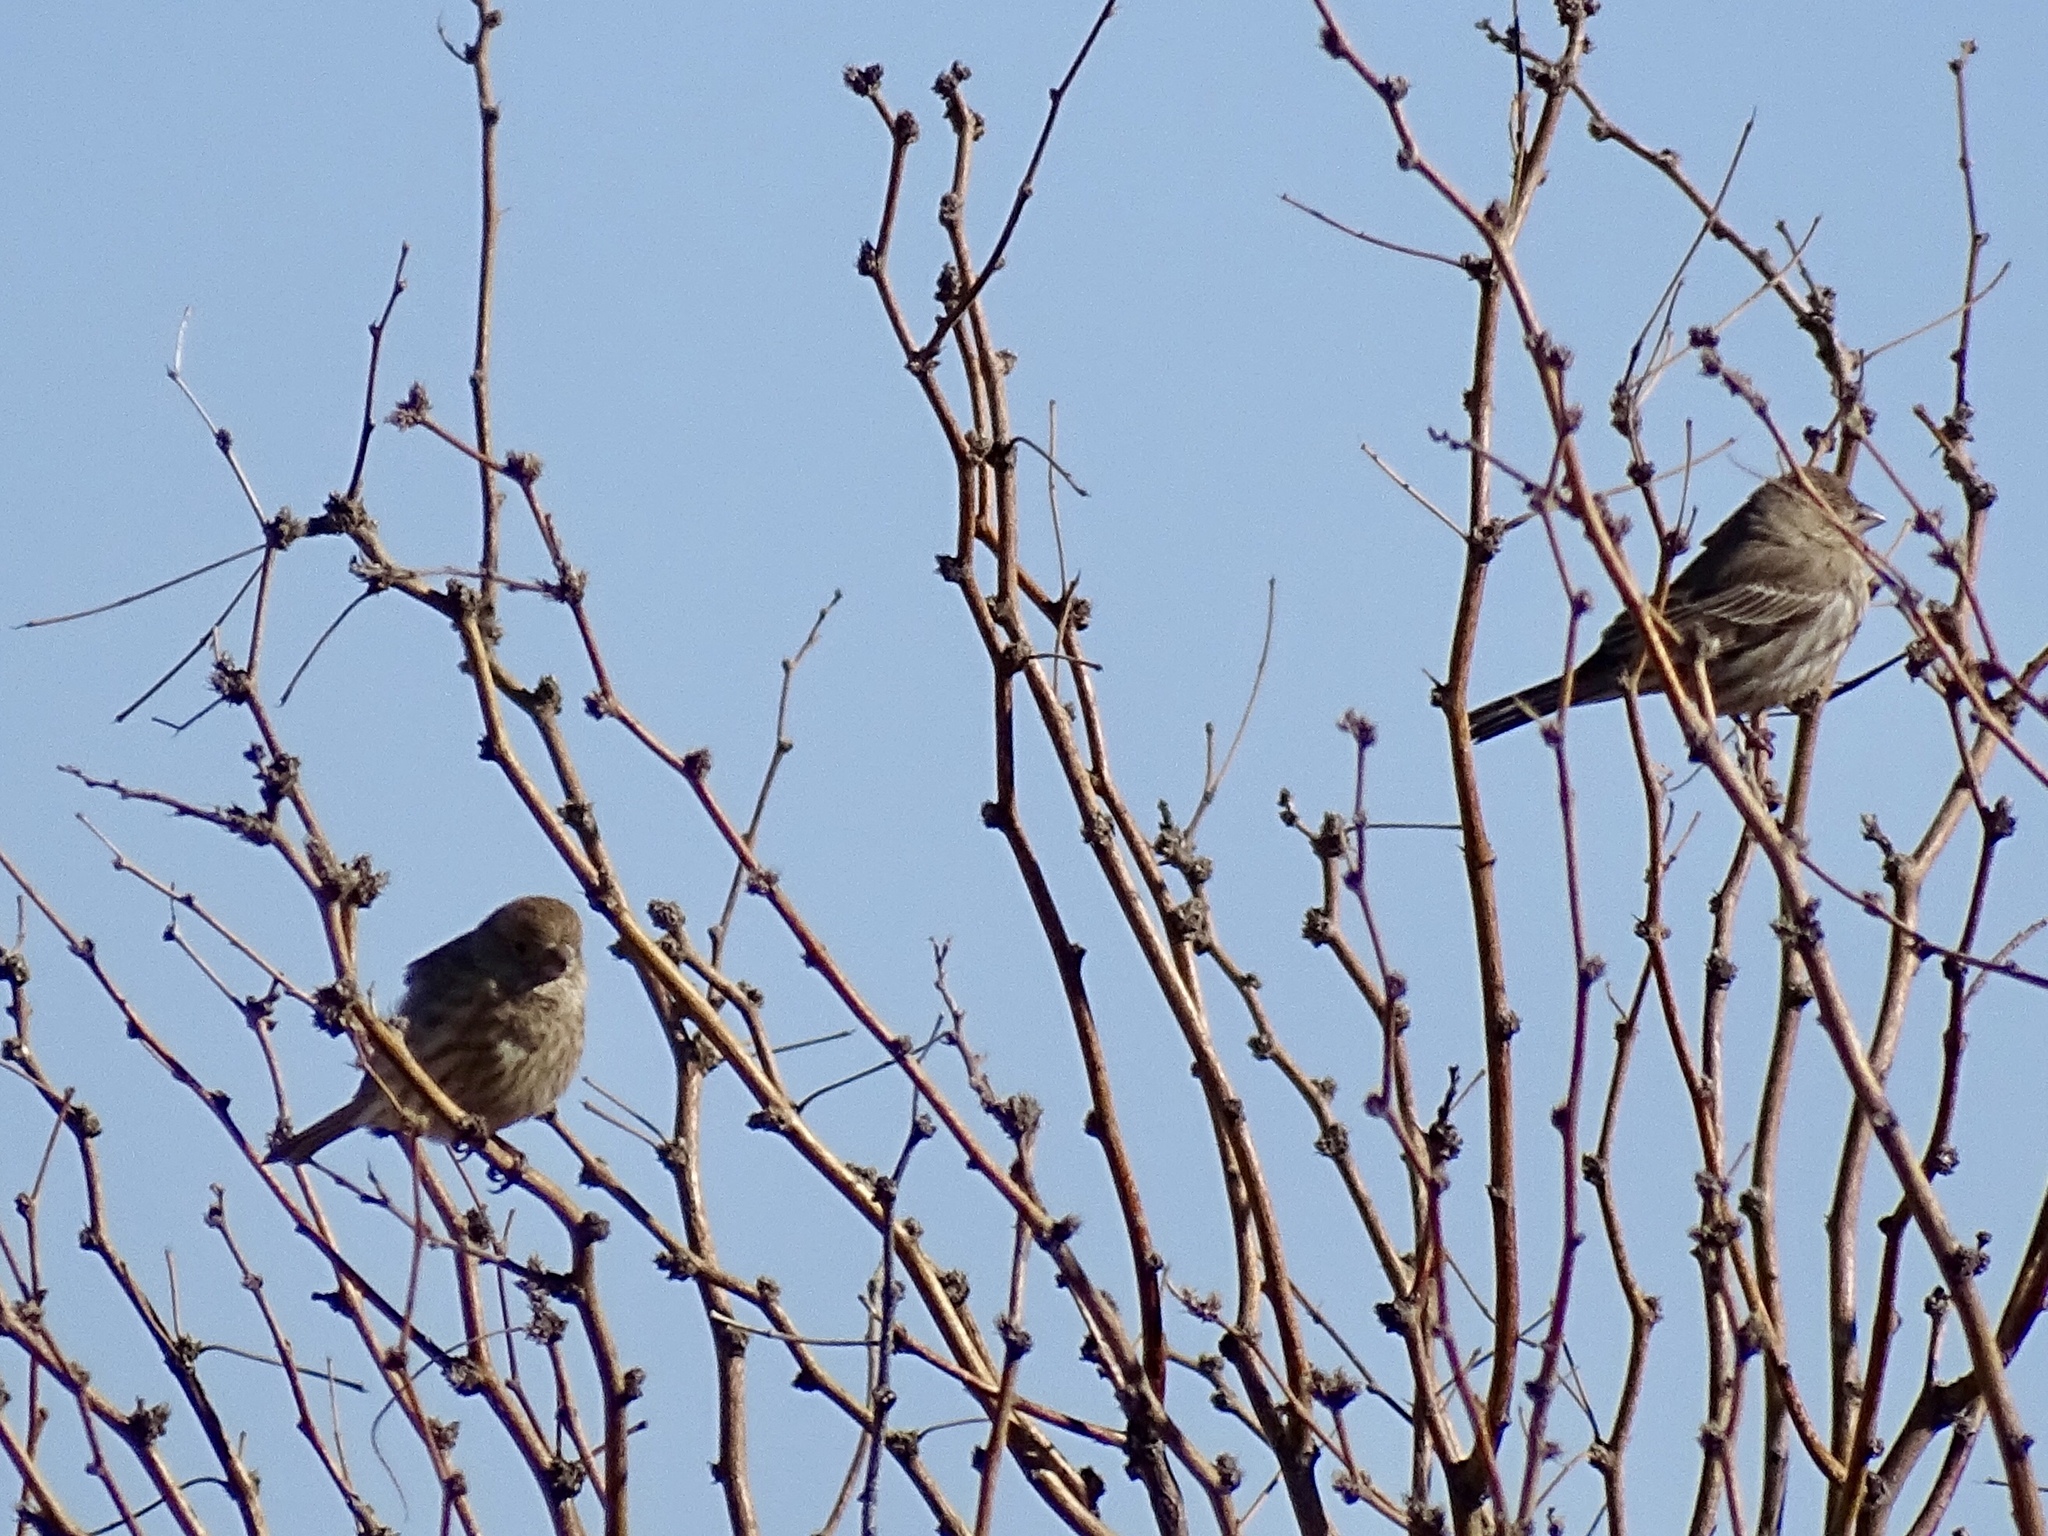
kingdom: Animalia
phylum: Chordata
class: Aves
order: Passeriformes
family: Fringillidae
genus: Haemorhous
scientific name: Haemorhous mexicanus
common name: House finch
